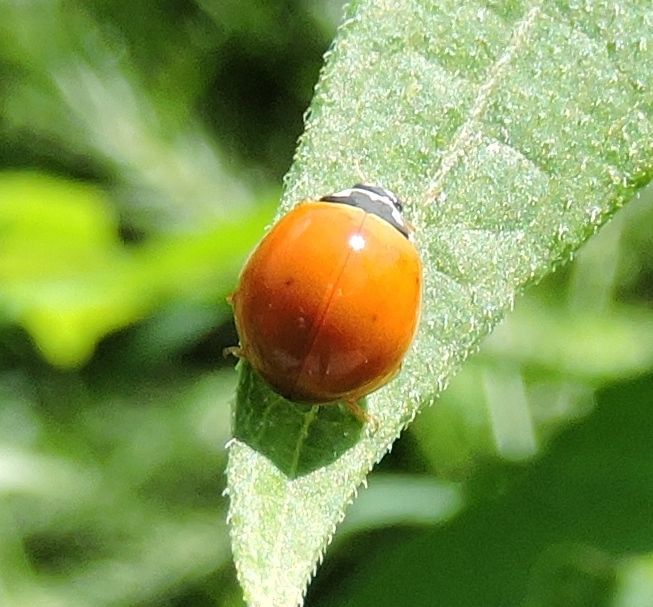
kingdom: Animalia
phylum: Arthropoda
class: Insecta
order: Coleoptera
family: Coccinellidae
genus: Cycloneda
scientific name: Cycloneda munda
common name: Polished lady beetle
